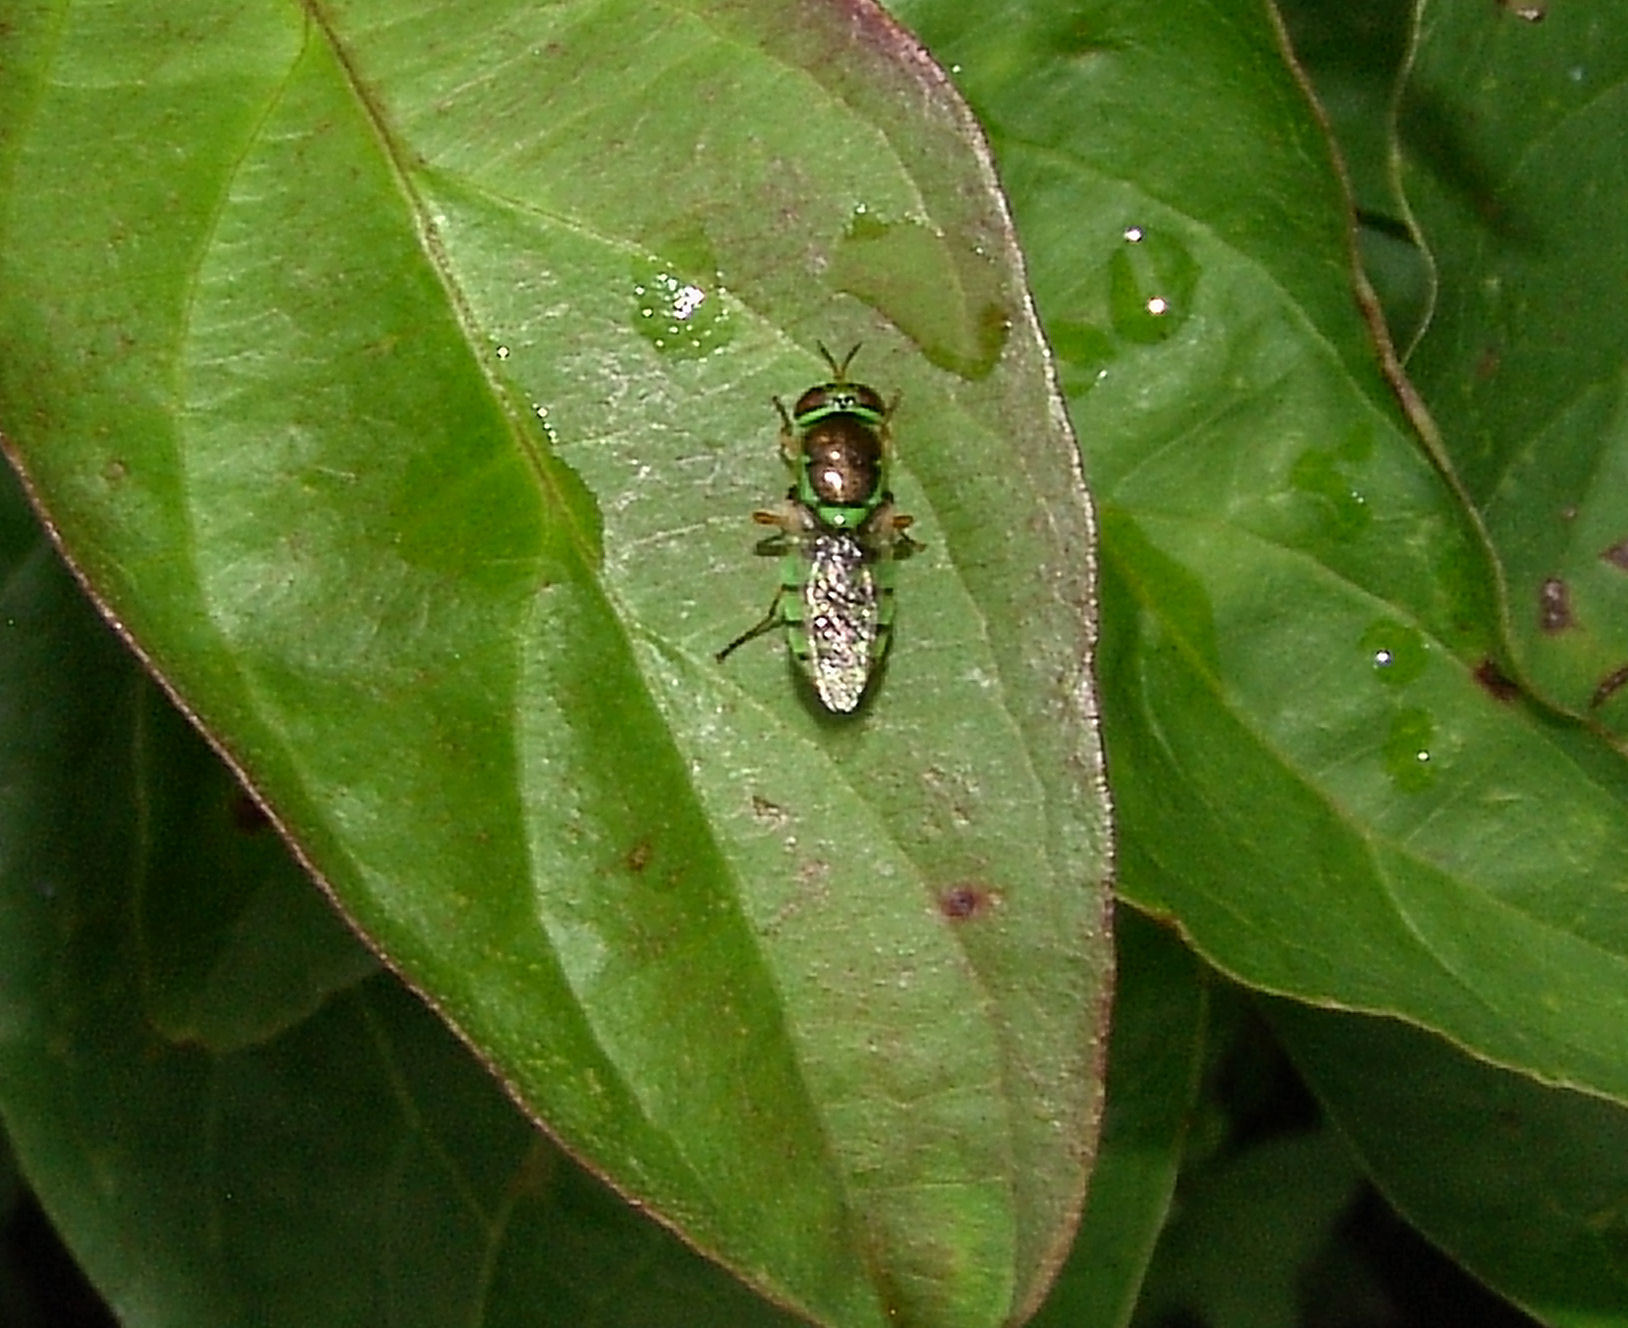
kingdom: Animalia
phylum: Arthropoda
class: Insecta
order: Diptera
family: Stratiomyidae
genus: Odontomyia
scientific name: Odontomyia cincta
